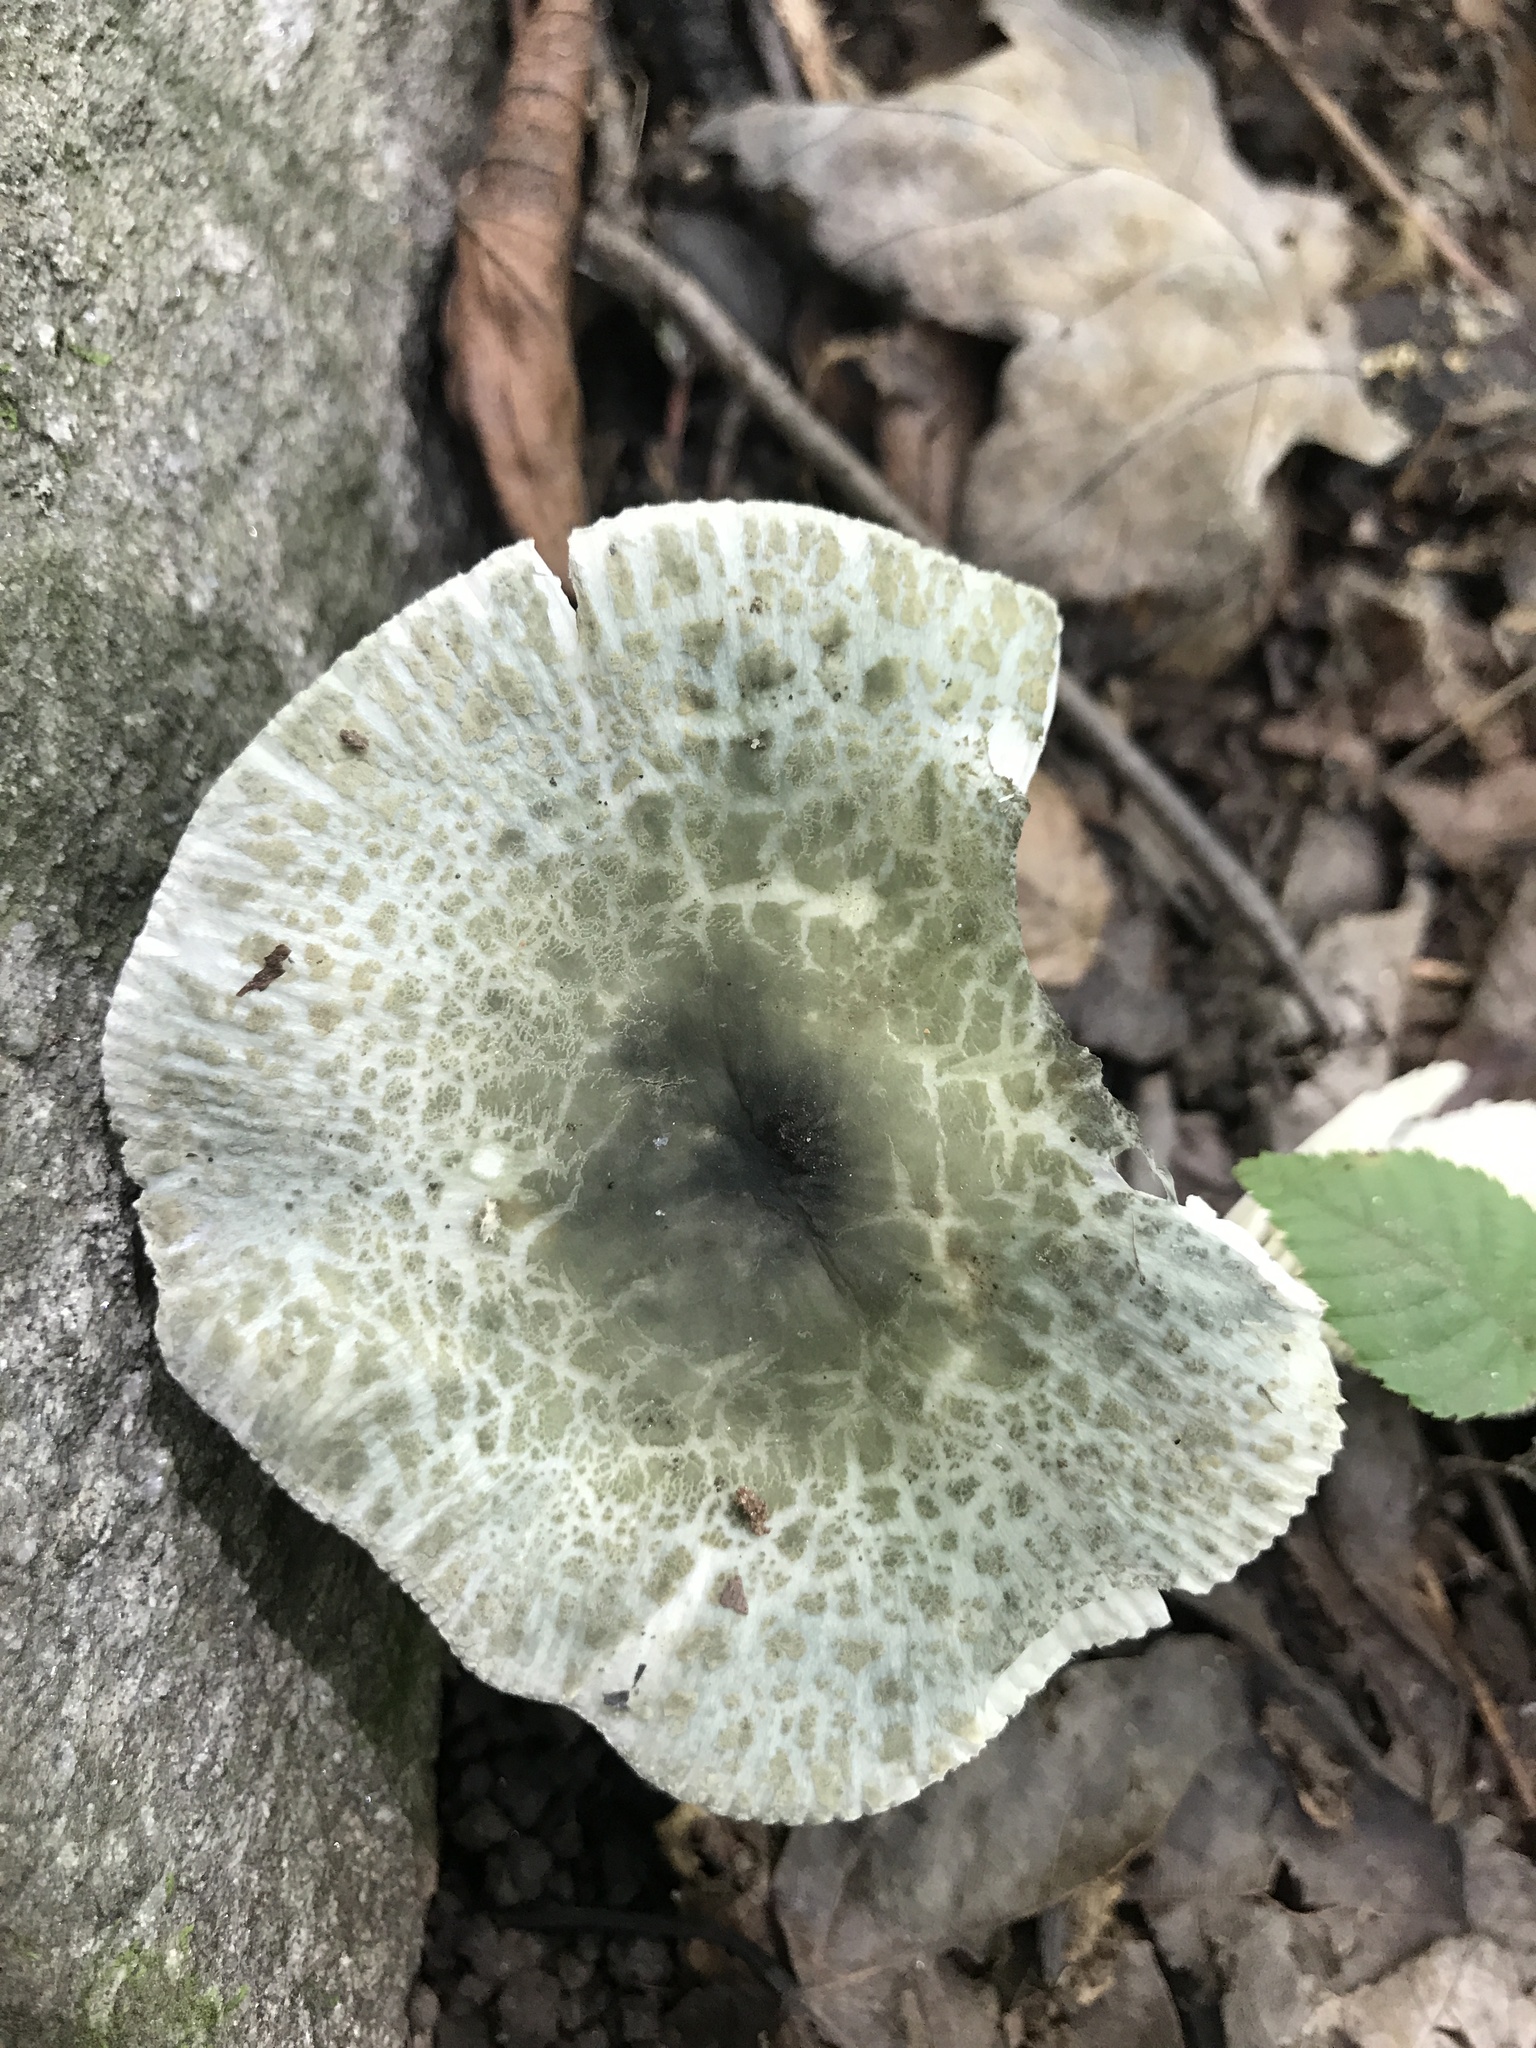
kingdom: Fungi
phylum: Basidiomycota
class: Agaricomycetes
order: Russulales
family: Russulaceae
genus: Russula
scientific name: Russula parvovirescens
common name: Blue-green cracking russula
